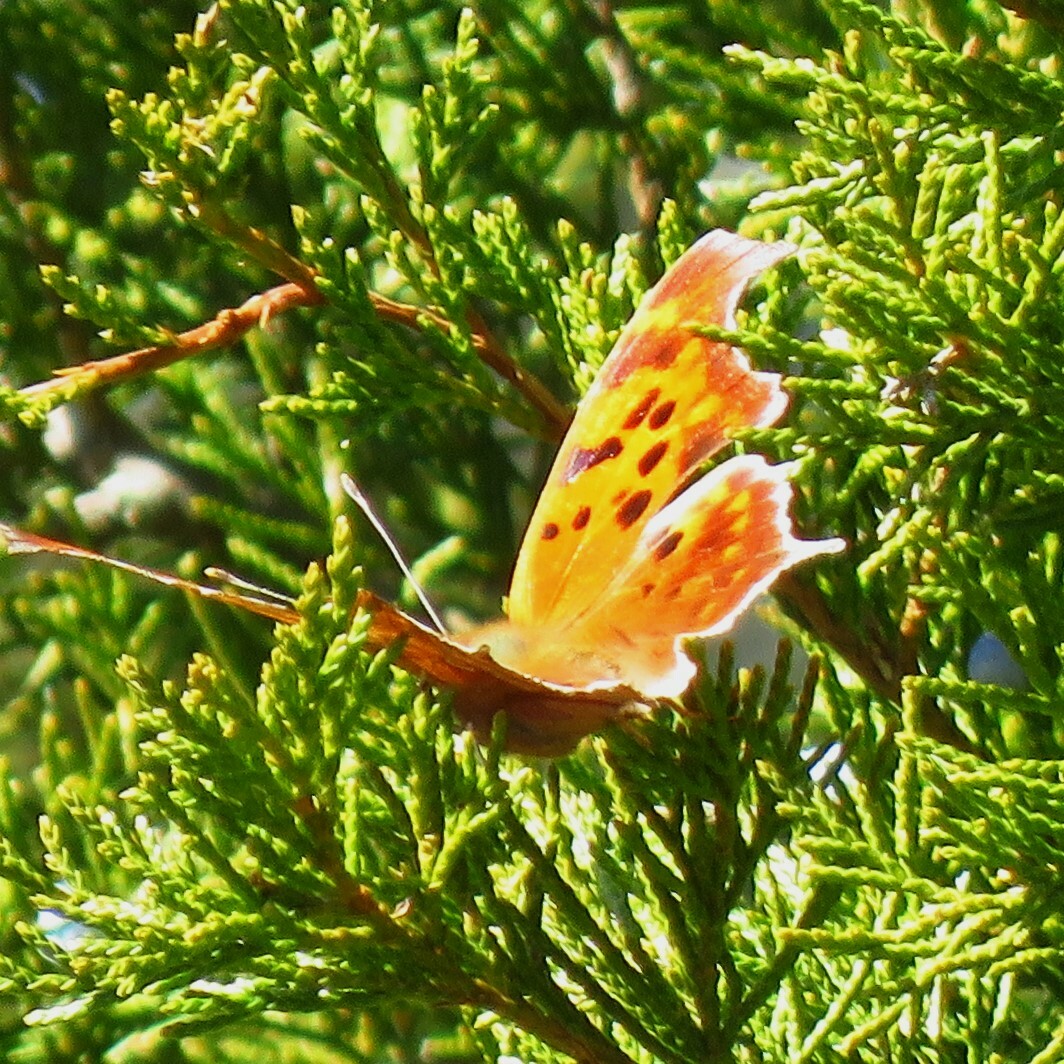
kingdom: Animalia
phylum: Arthropoda
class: Insecta
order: Lepidoptera
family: Nymphalidae
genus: Polygonia
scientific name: Polygonia interrogationis
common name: Question mark
